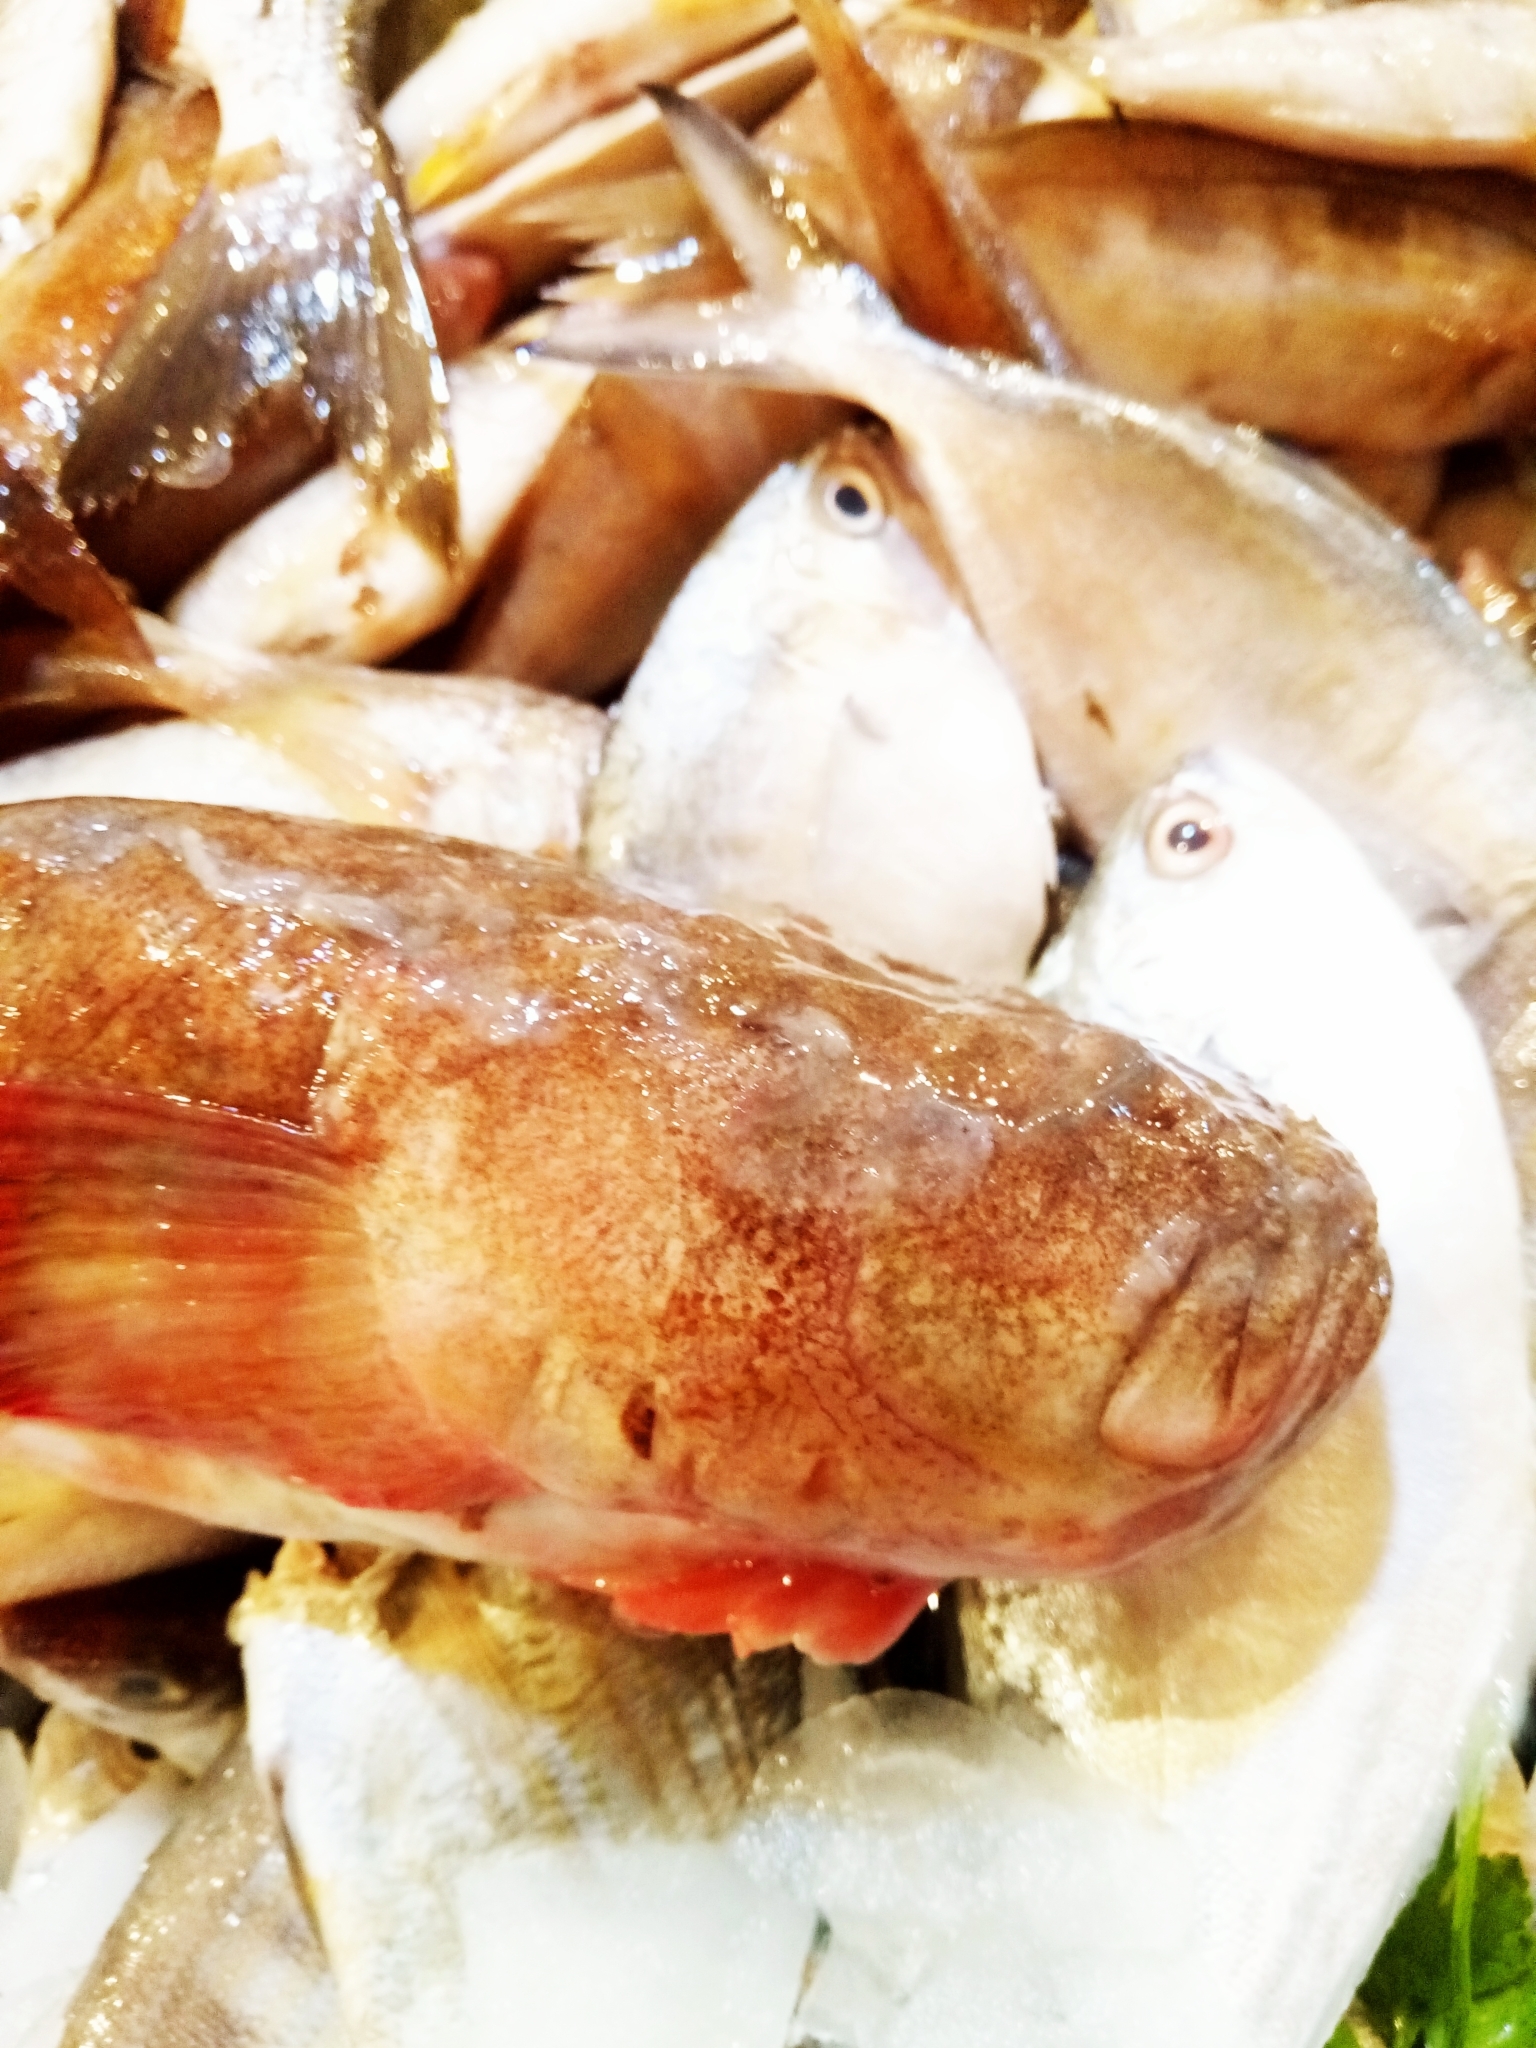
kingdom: Animalia
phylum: Chordata
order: Perciformes
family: Uranoscopidae
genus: Uranoscopus
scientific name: Uranoscopus scaber
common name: Stargazer
